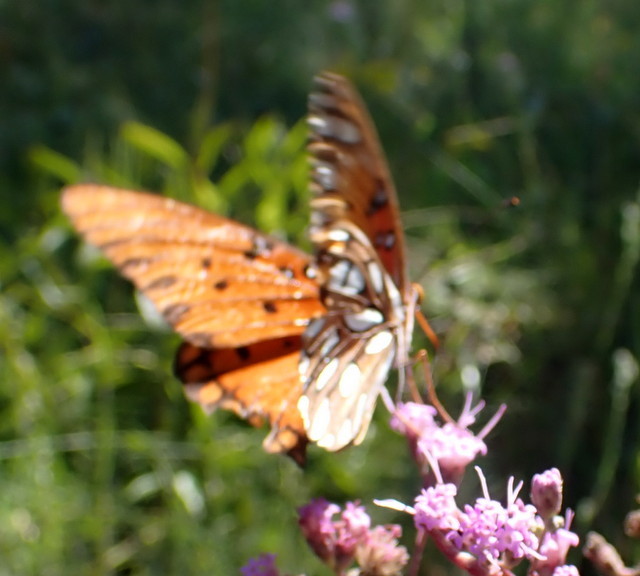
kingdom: Animalia
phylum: Arthropoda
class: Insecta
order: Lepidoptera
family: Nymphalidae
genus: Dione
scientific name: Dione vanillae
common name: Gulf fritillary
